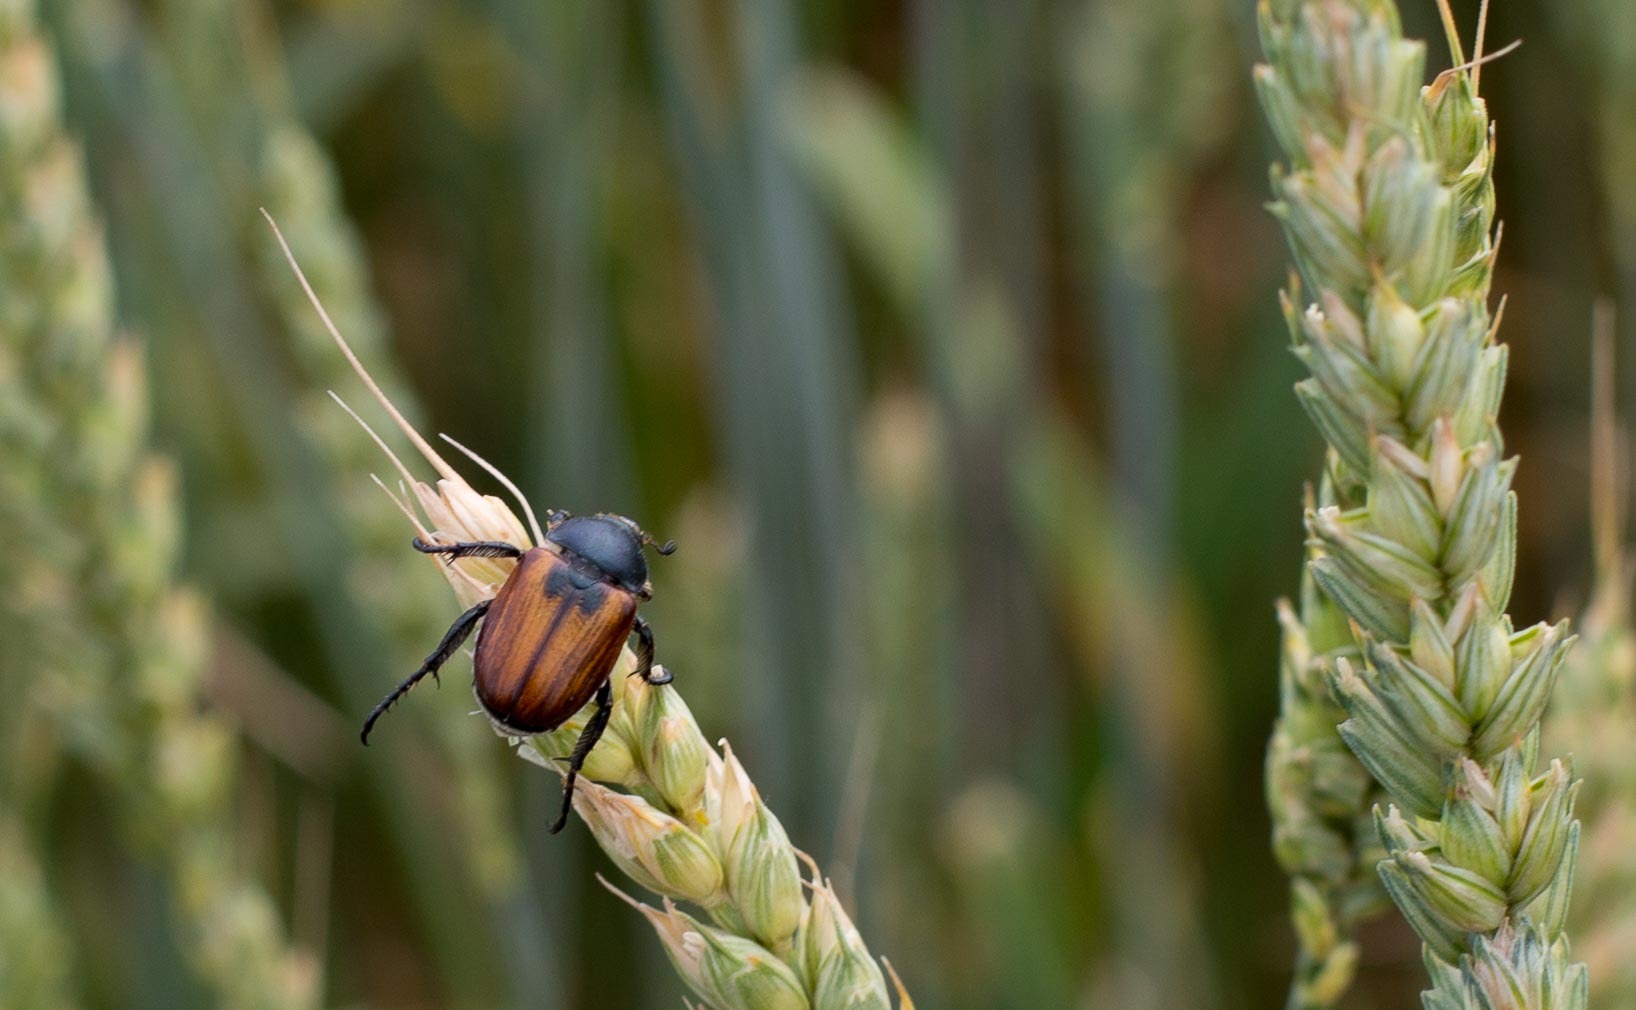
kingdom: Animalia
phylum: Arthropoda
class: Insecta
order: Coleoptera
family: Scarabaeidae
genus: Anisoplia
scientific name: Anisoplia austriaca
